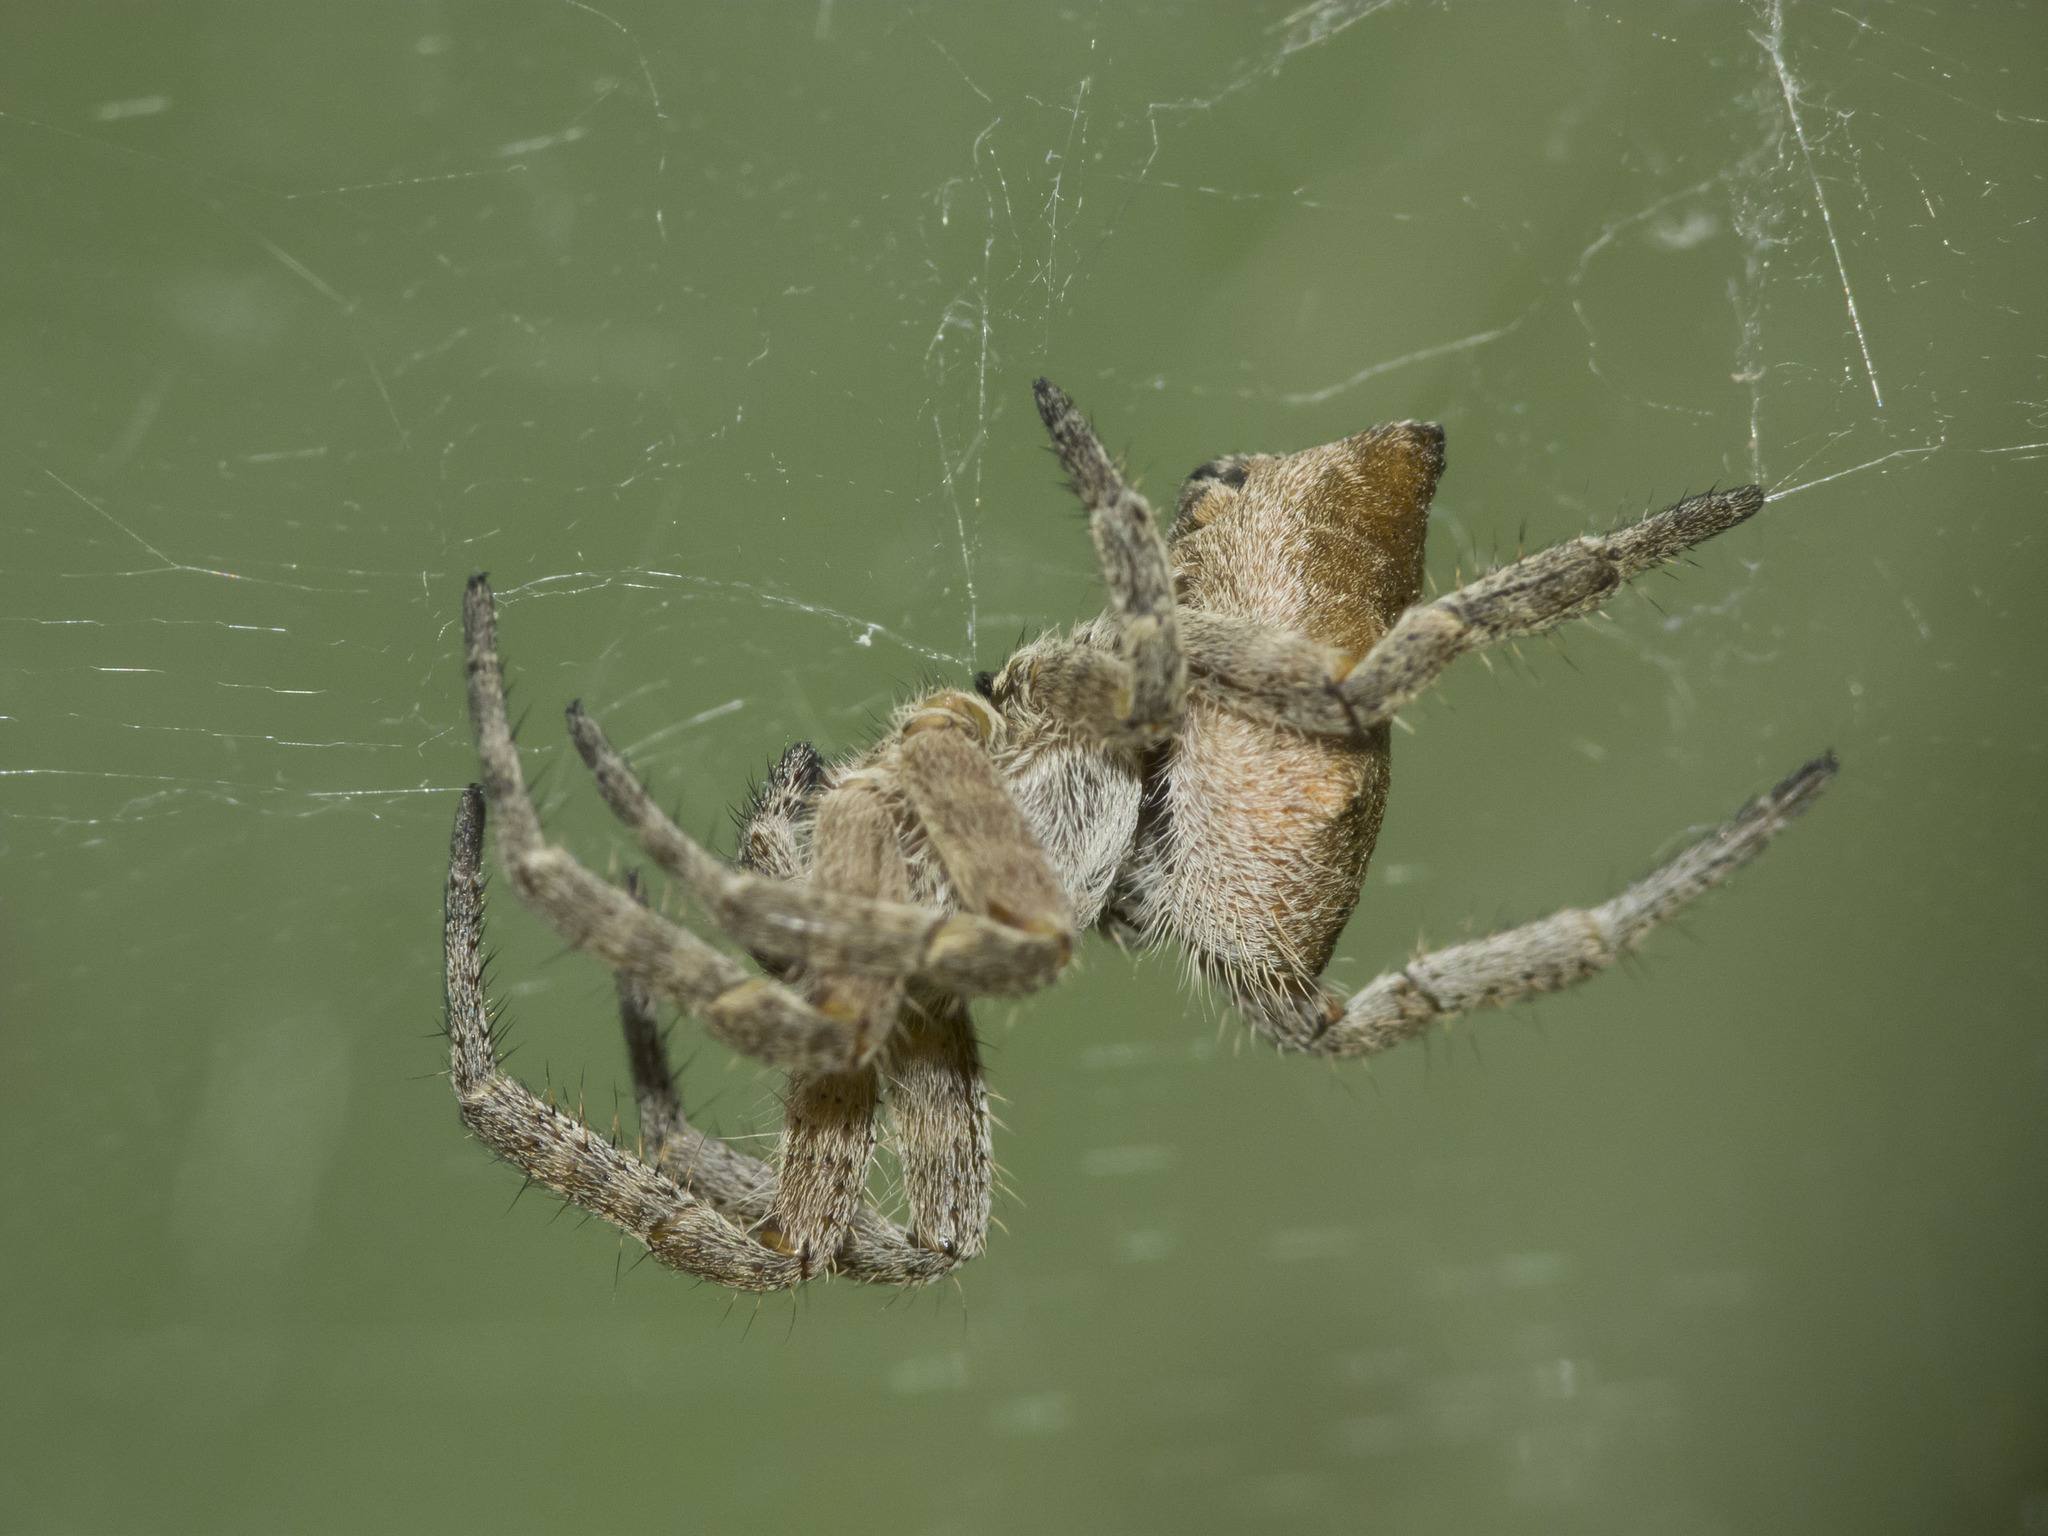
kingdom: Animalia
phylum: Arthropoda
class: Arachnida
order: Araneae
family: Araneidae
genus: Cyrtophora
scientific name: Cyrtophora citricola
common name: Orb weavers
